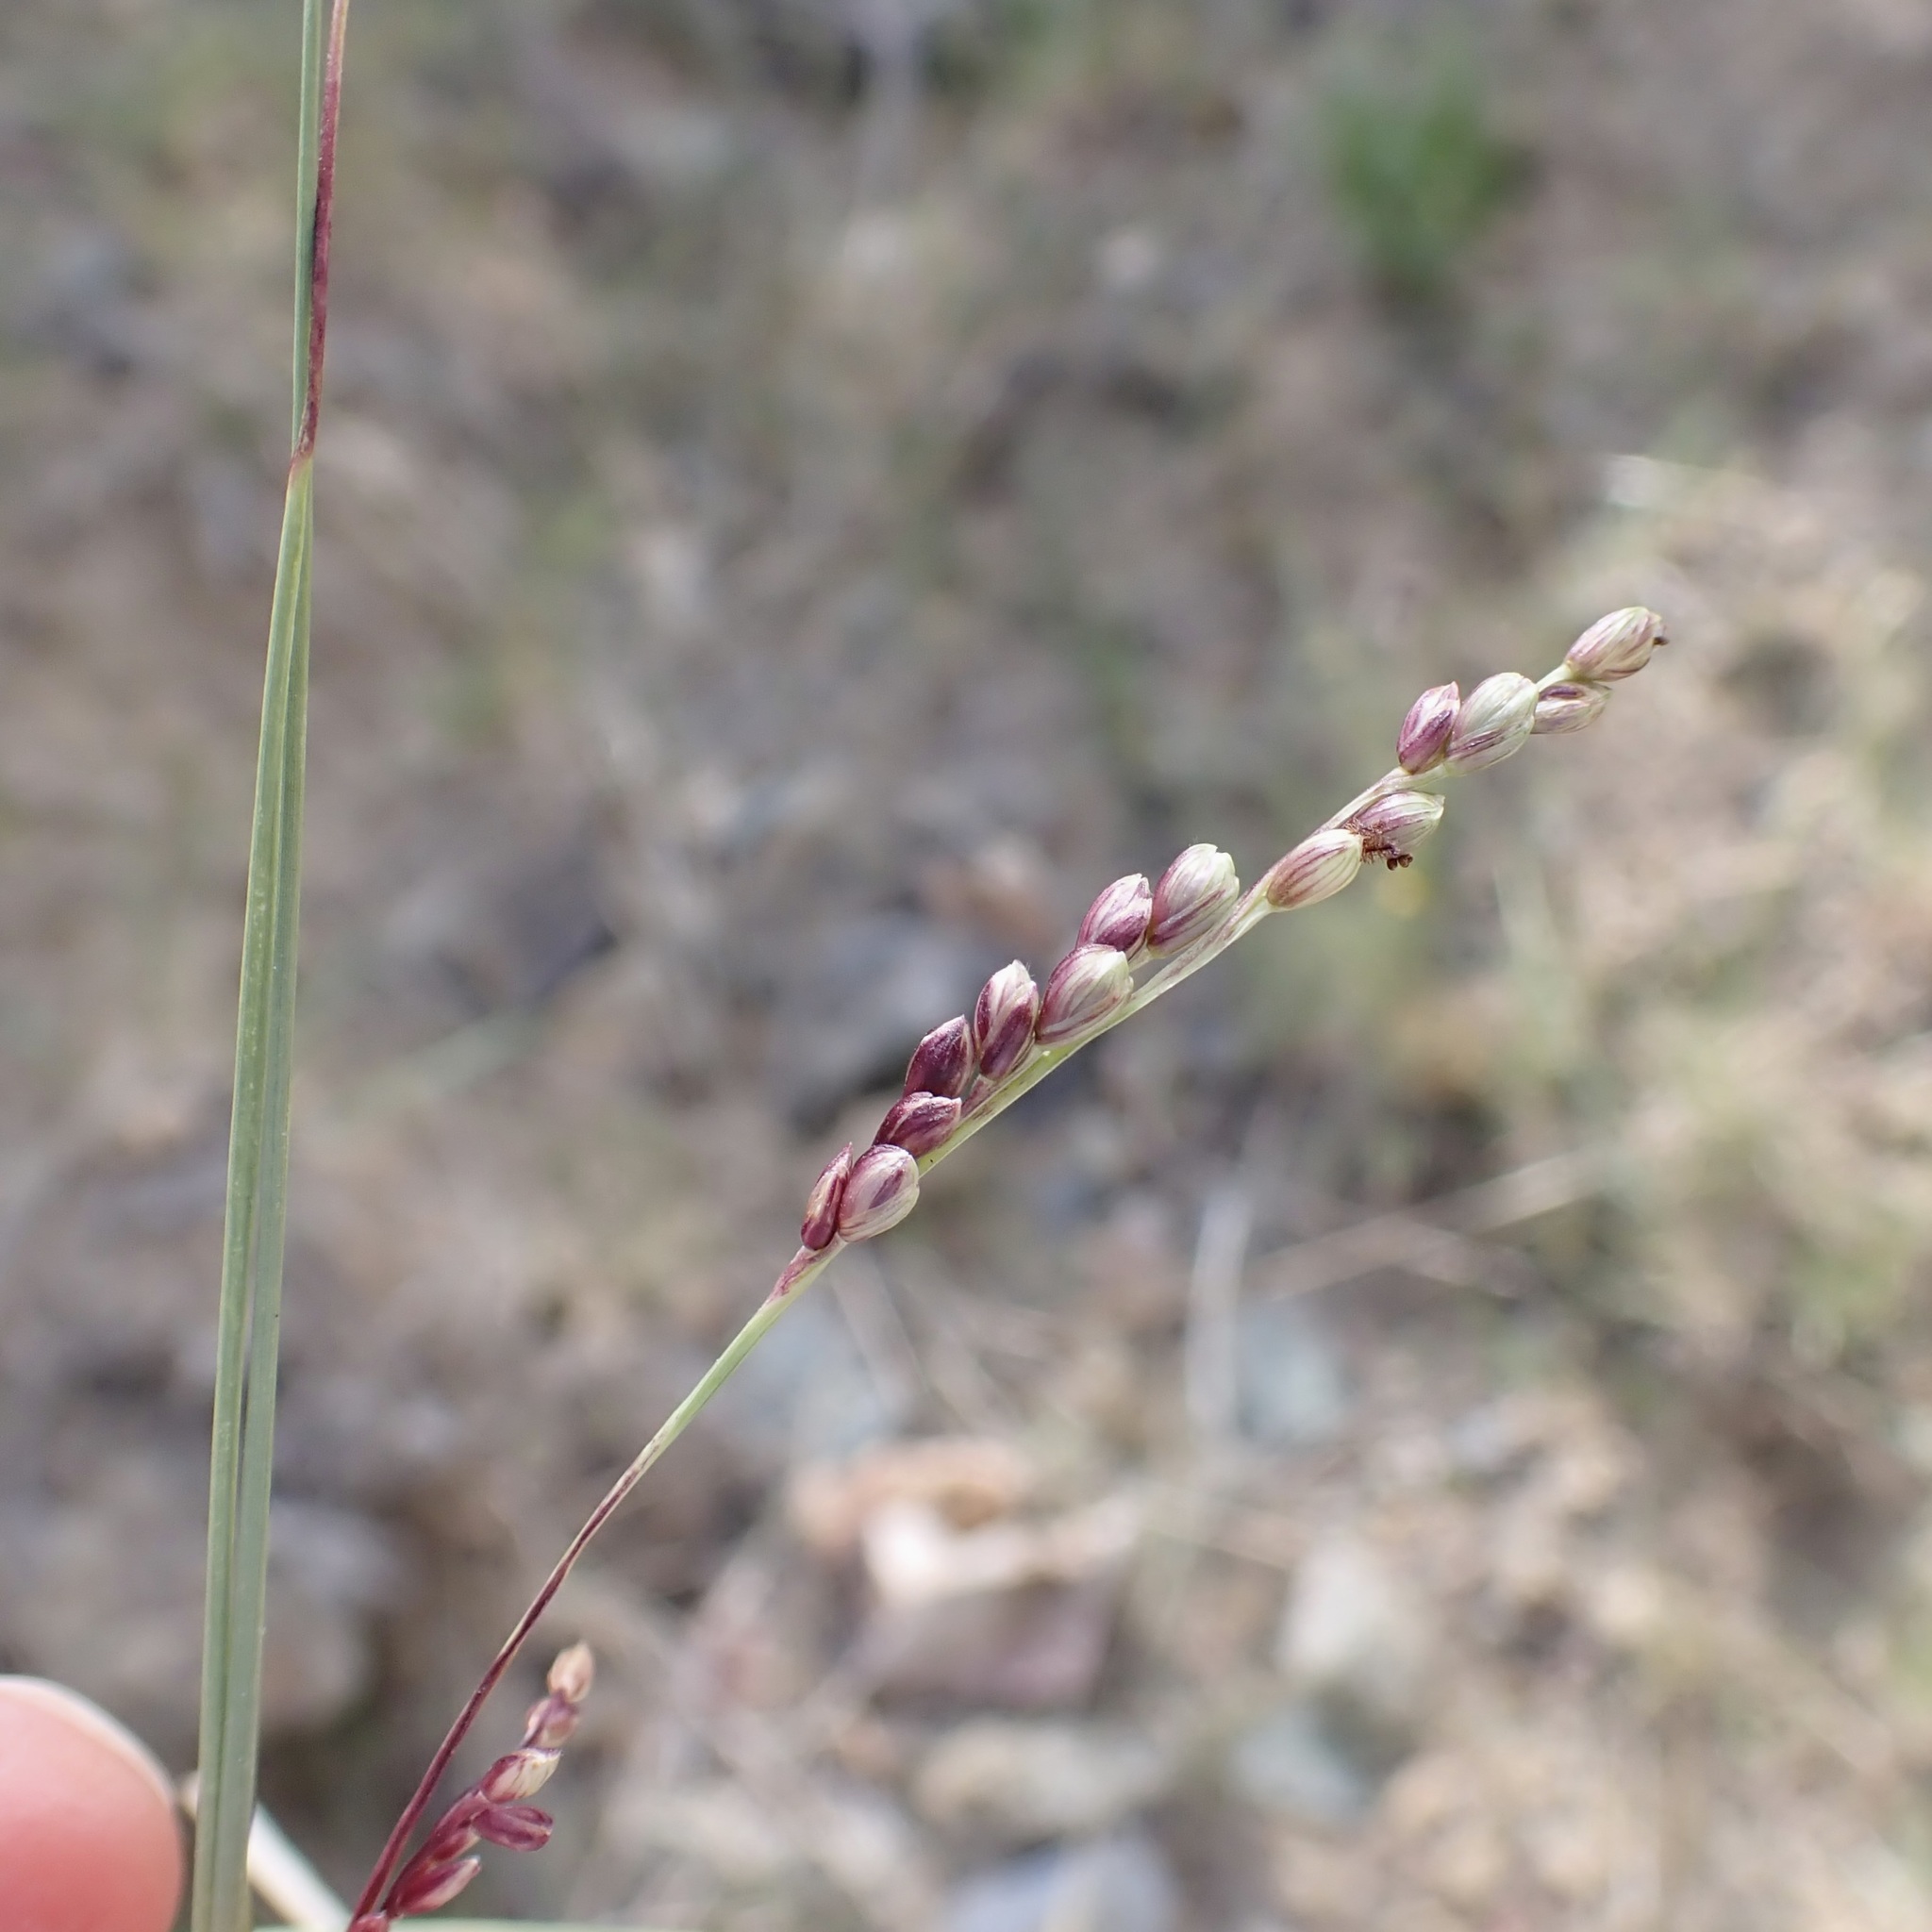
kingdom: Plantae
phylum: Tracheophyta
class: Liliopsida
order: Poales
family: Poaceae
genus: Hopia
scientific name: Hopia obtusa
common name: Vine-mesquite
